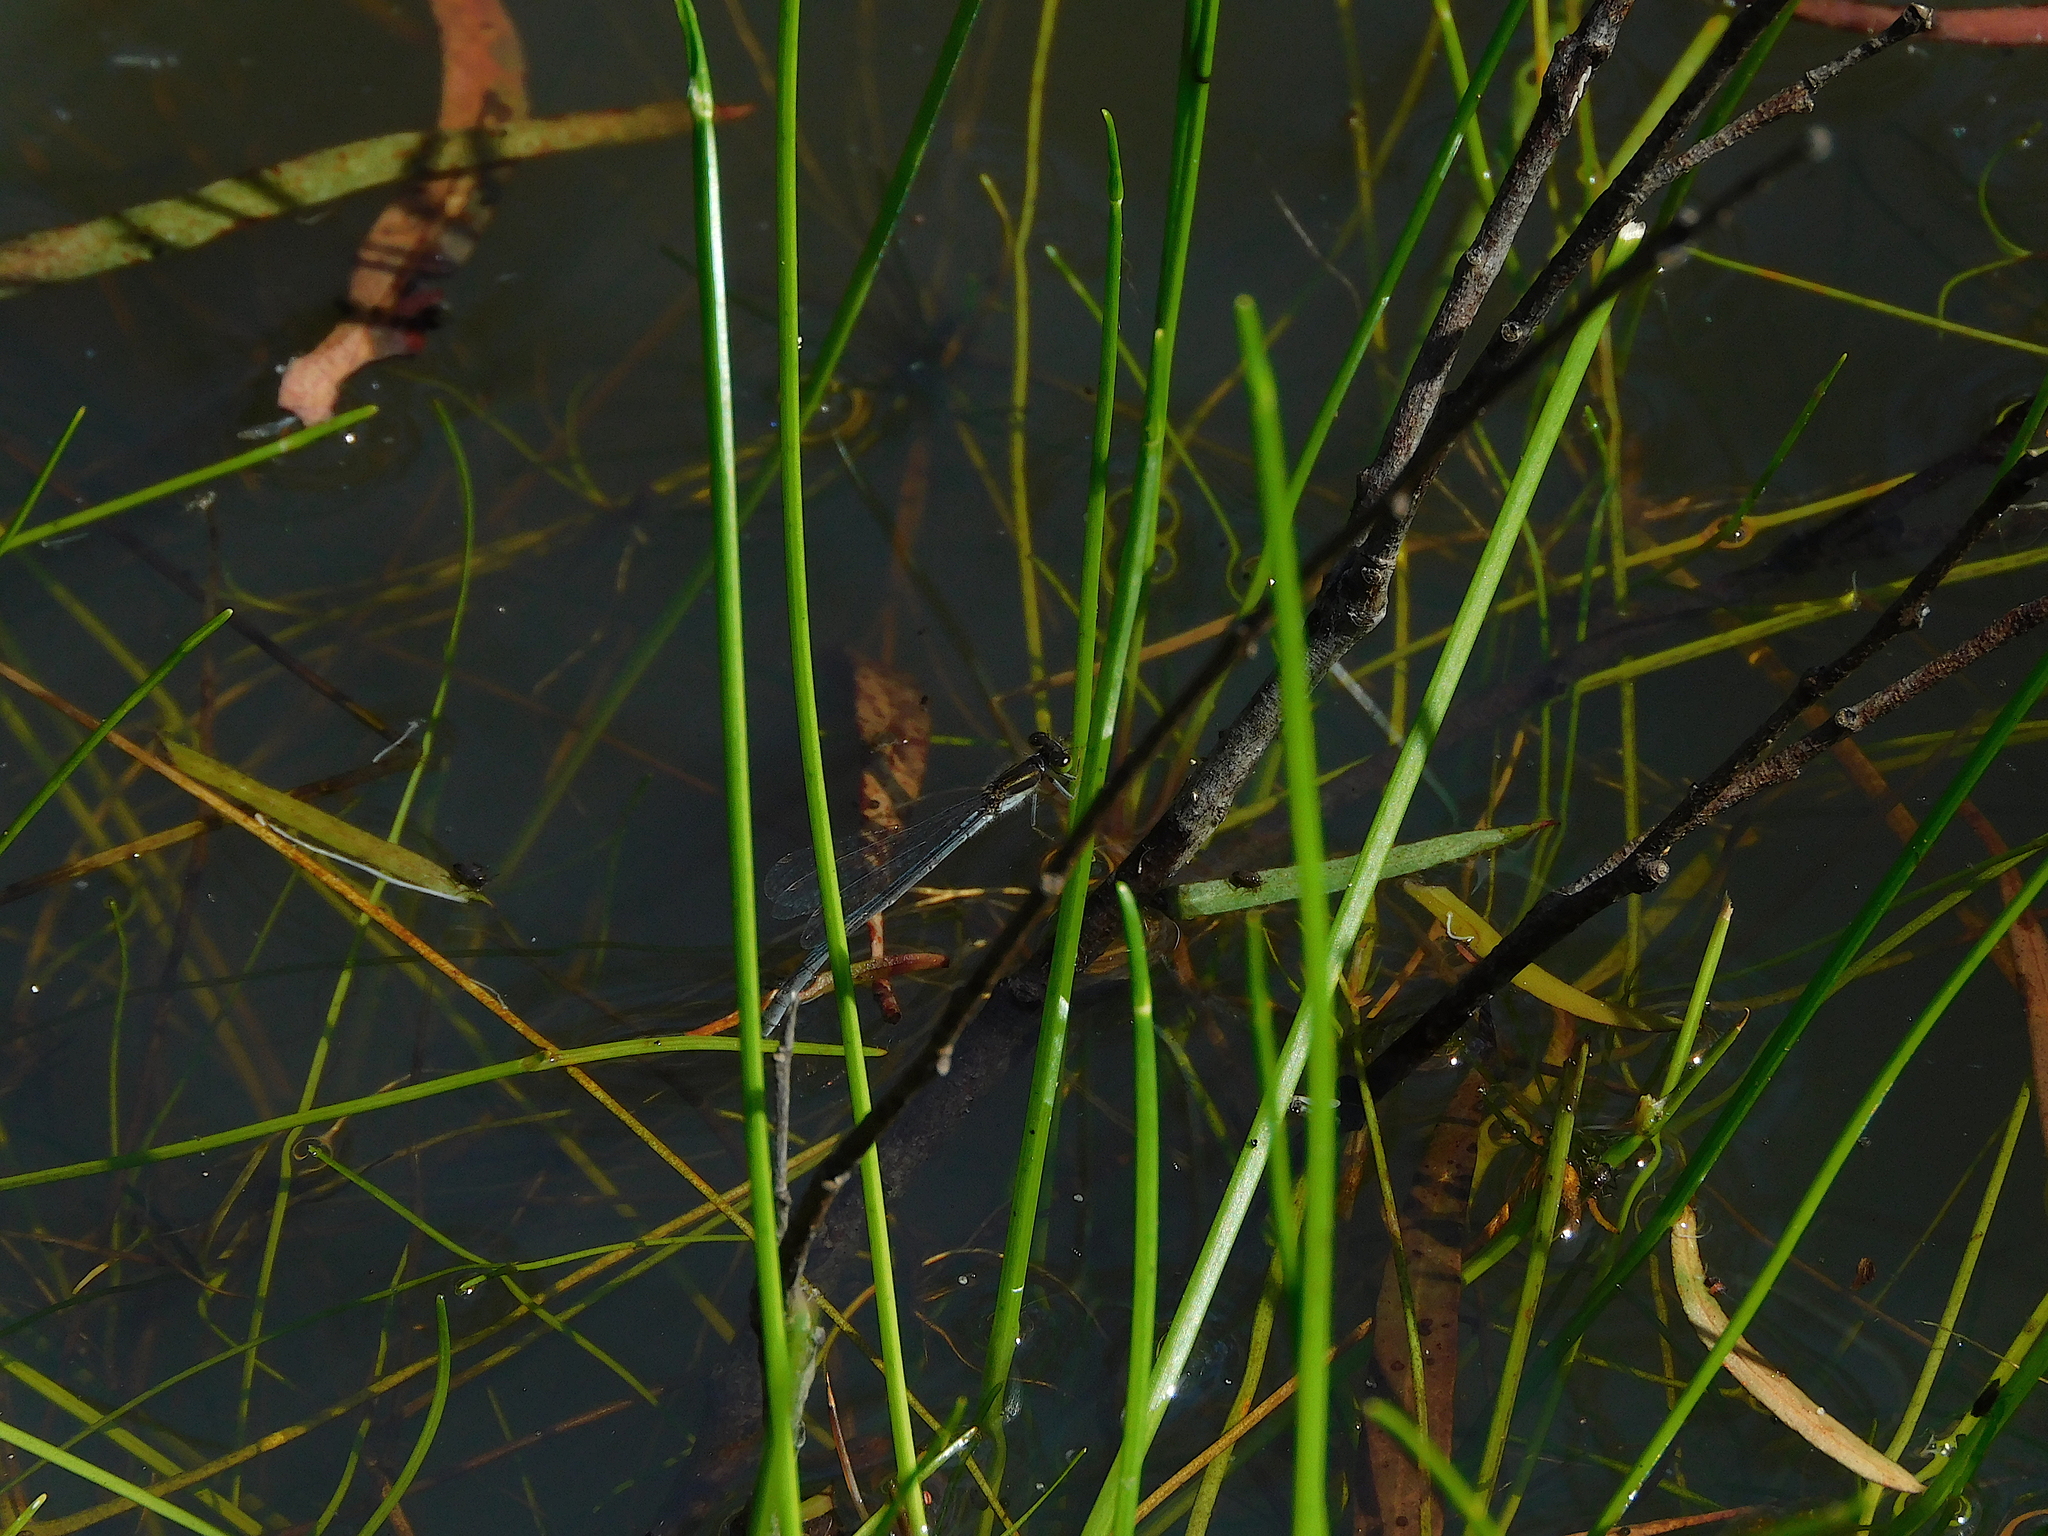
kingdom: Animalia
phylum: Arthropoda
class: Insecta
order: Odonata
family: Coenagrionidae
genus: Ischnura
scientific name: Ischnura aurora
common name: Gossamer damselfly
